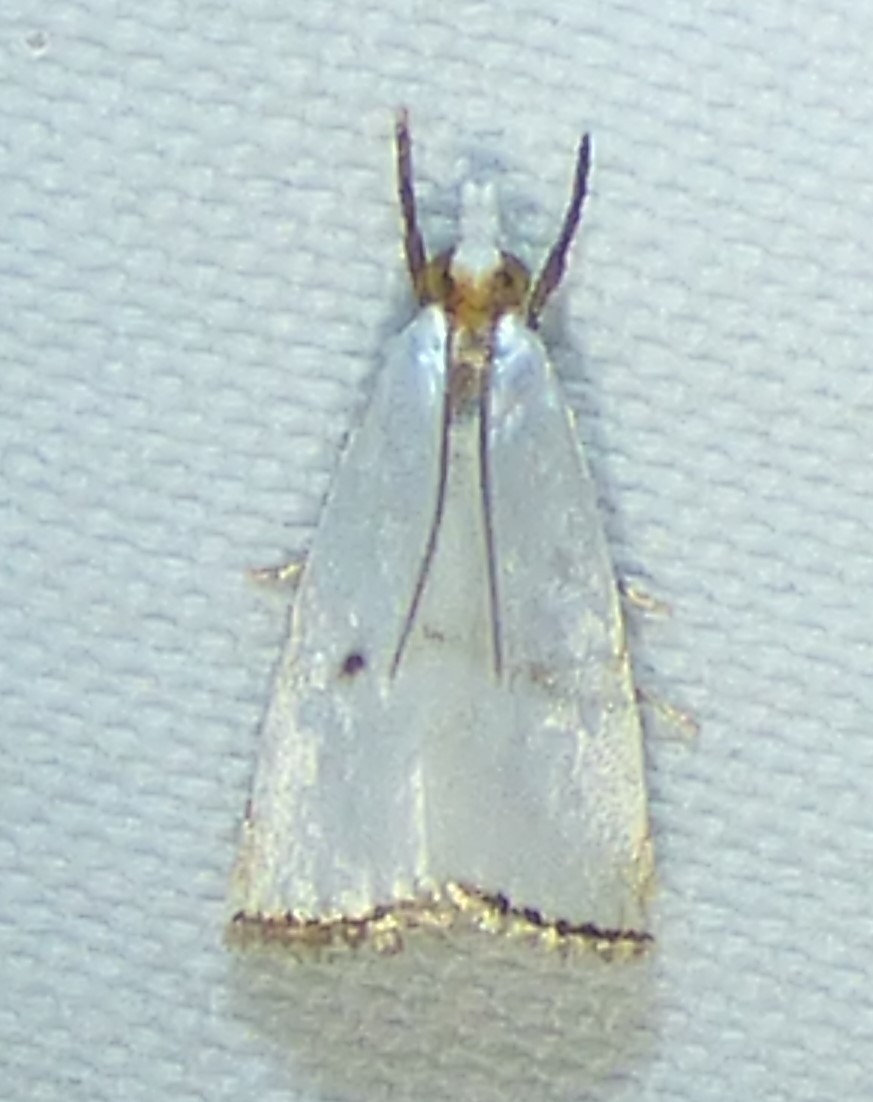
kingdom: Animalia
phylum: Arthropoda
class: Insecta
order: Lepidoptera
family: Crambidae
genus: Argyria
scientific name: Argyria pusillalis
